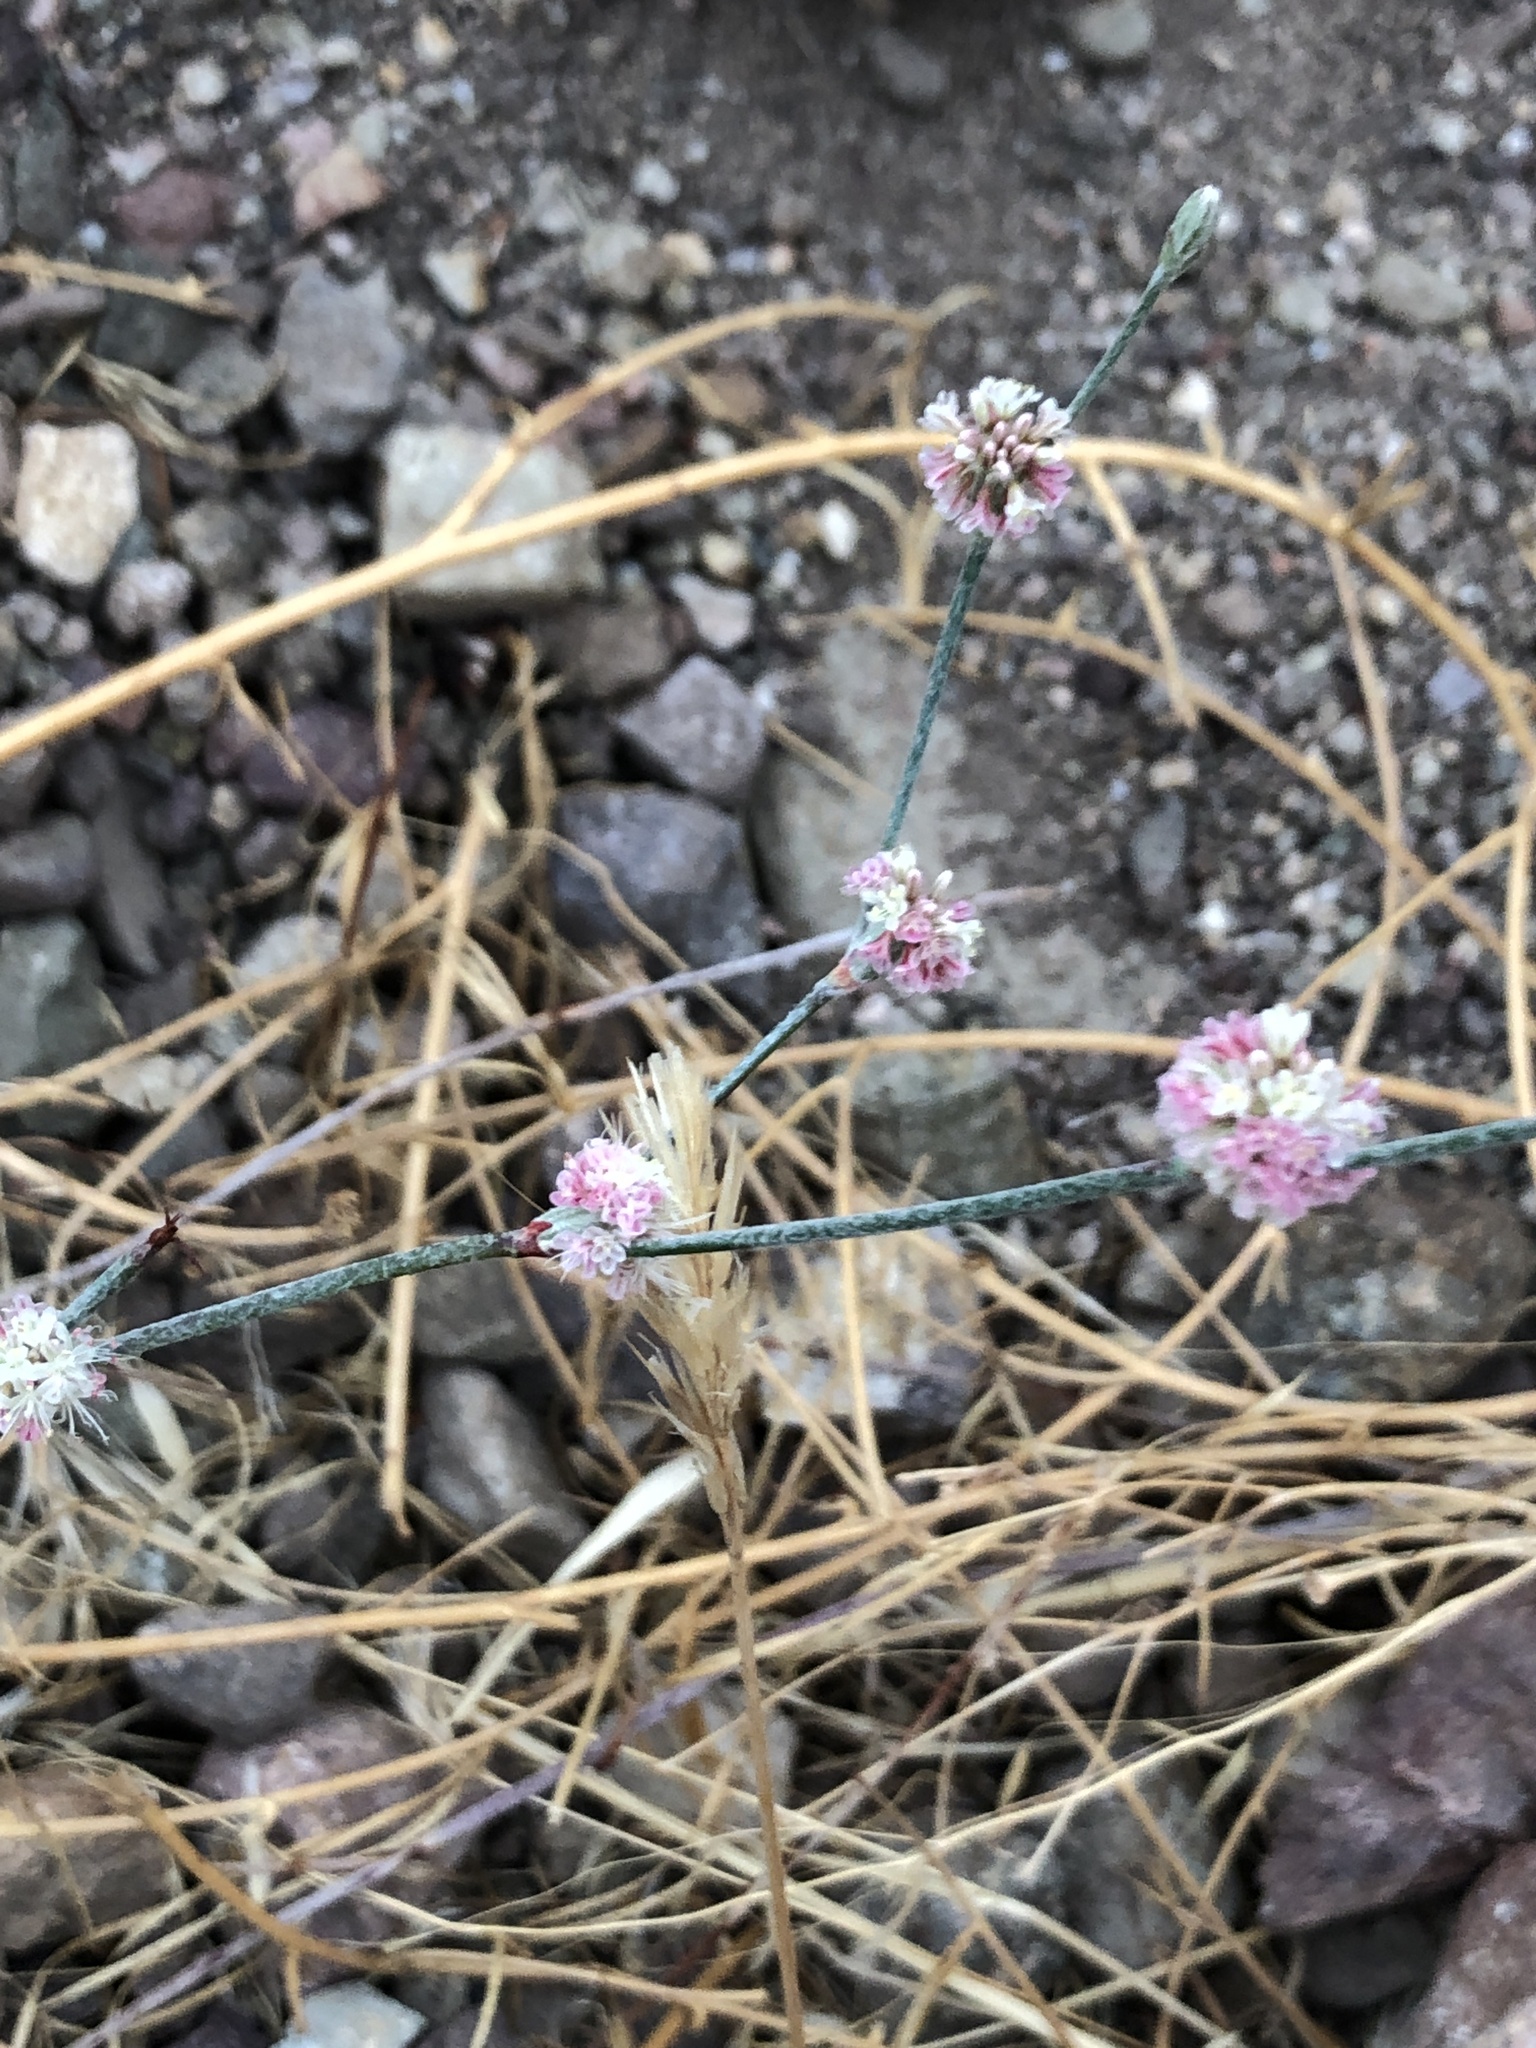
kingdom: Plantae
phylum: Tracheophyta
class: Magnoliopsida
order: Caryophyllales
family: Polygonaceae
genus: Eriogonum
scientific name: Eriogonum elongatum
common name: Long-stem wild buckwheat
